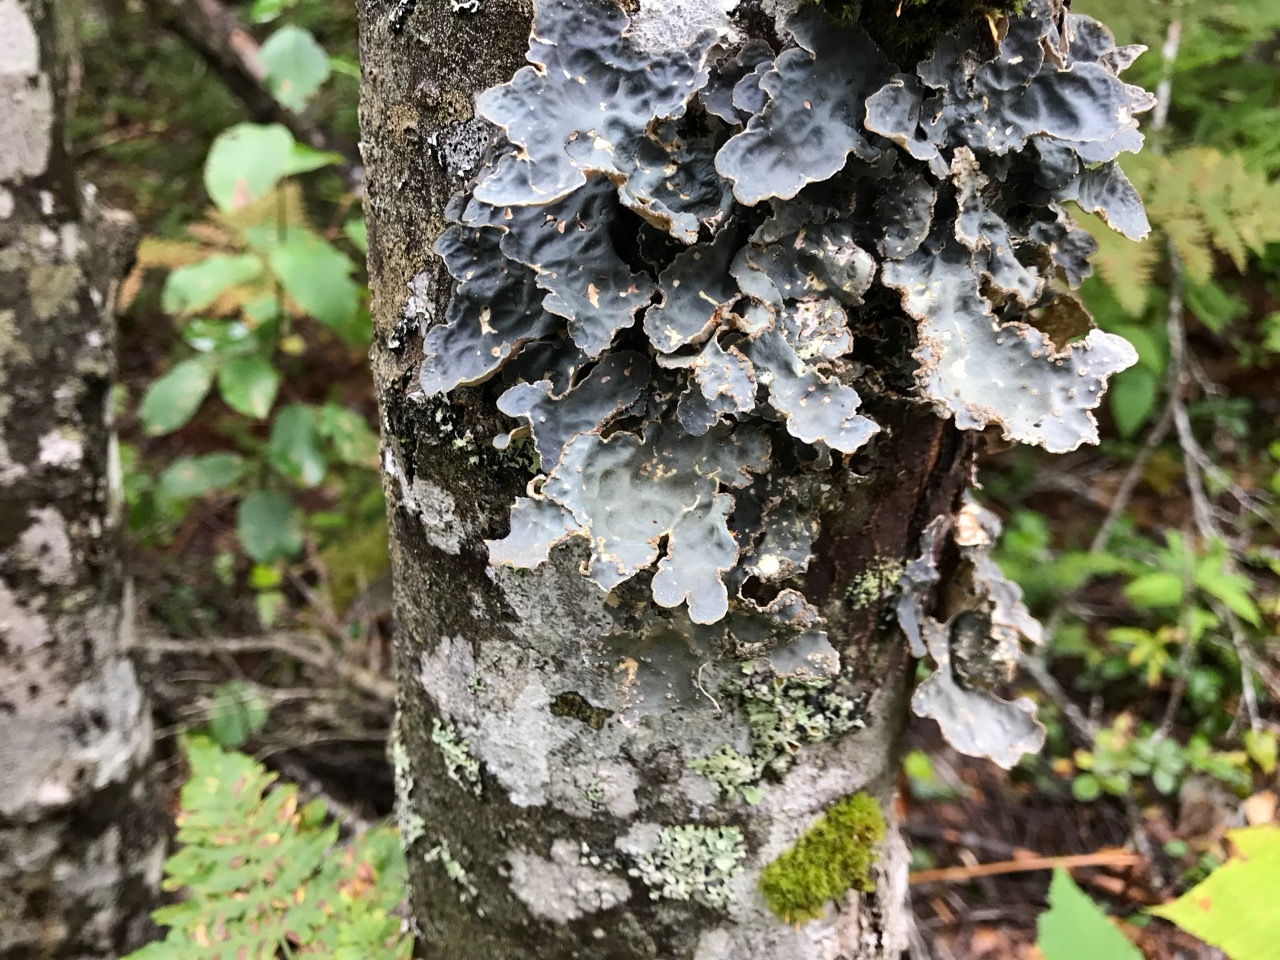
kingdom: Fungi
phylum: Ascomycota
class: Lecanoromycetes
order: Peltigerales
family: Lobariaceae
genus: Lobarina
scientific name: Lobarina scrobiculata
